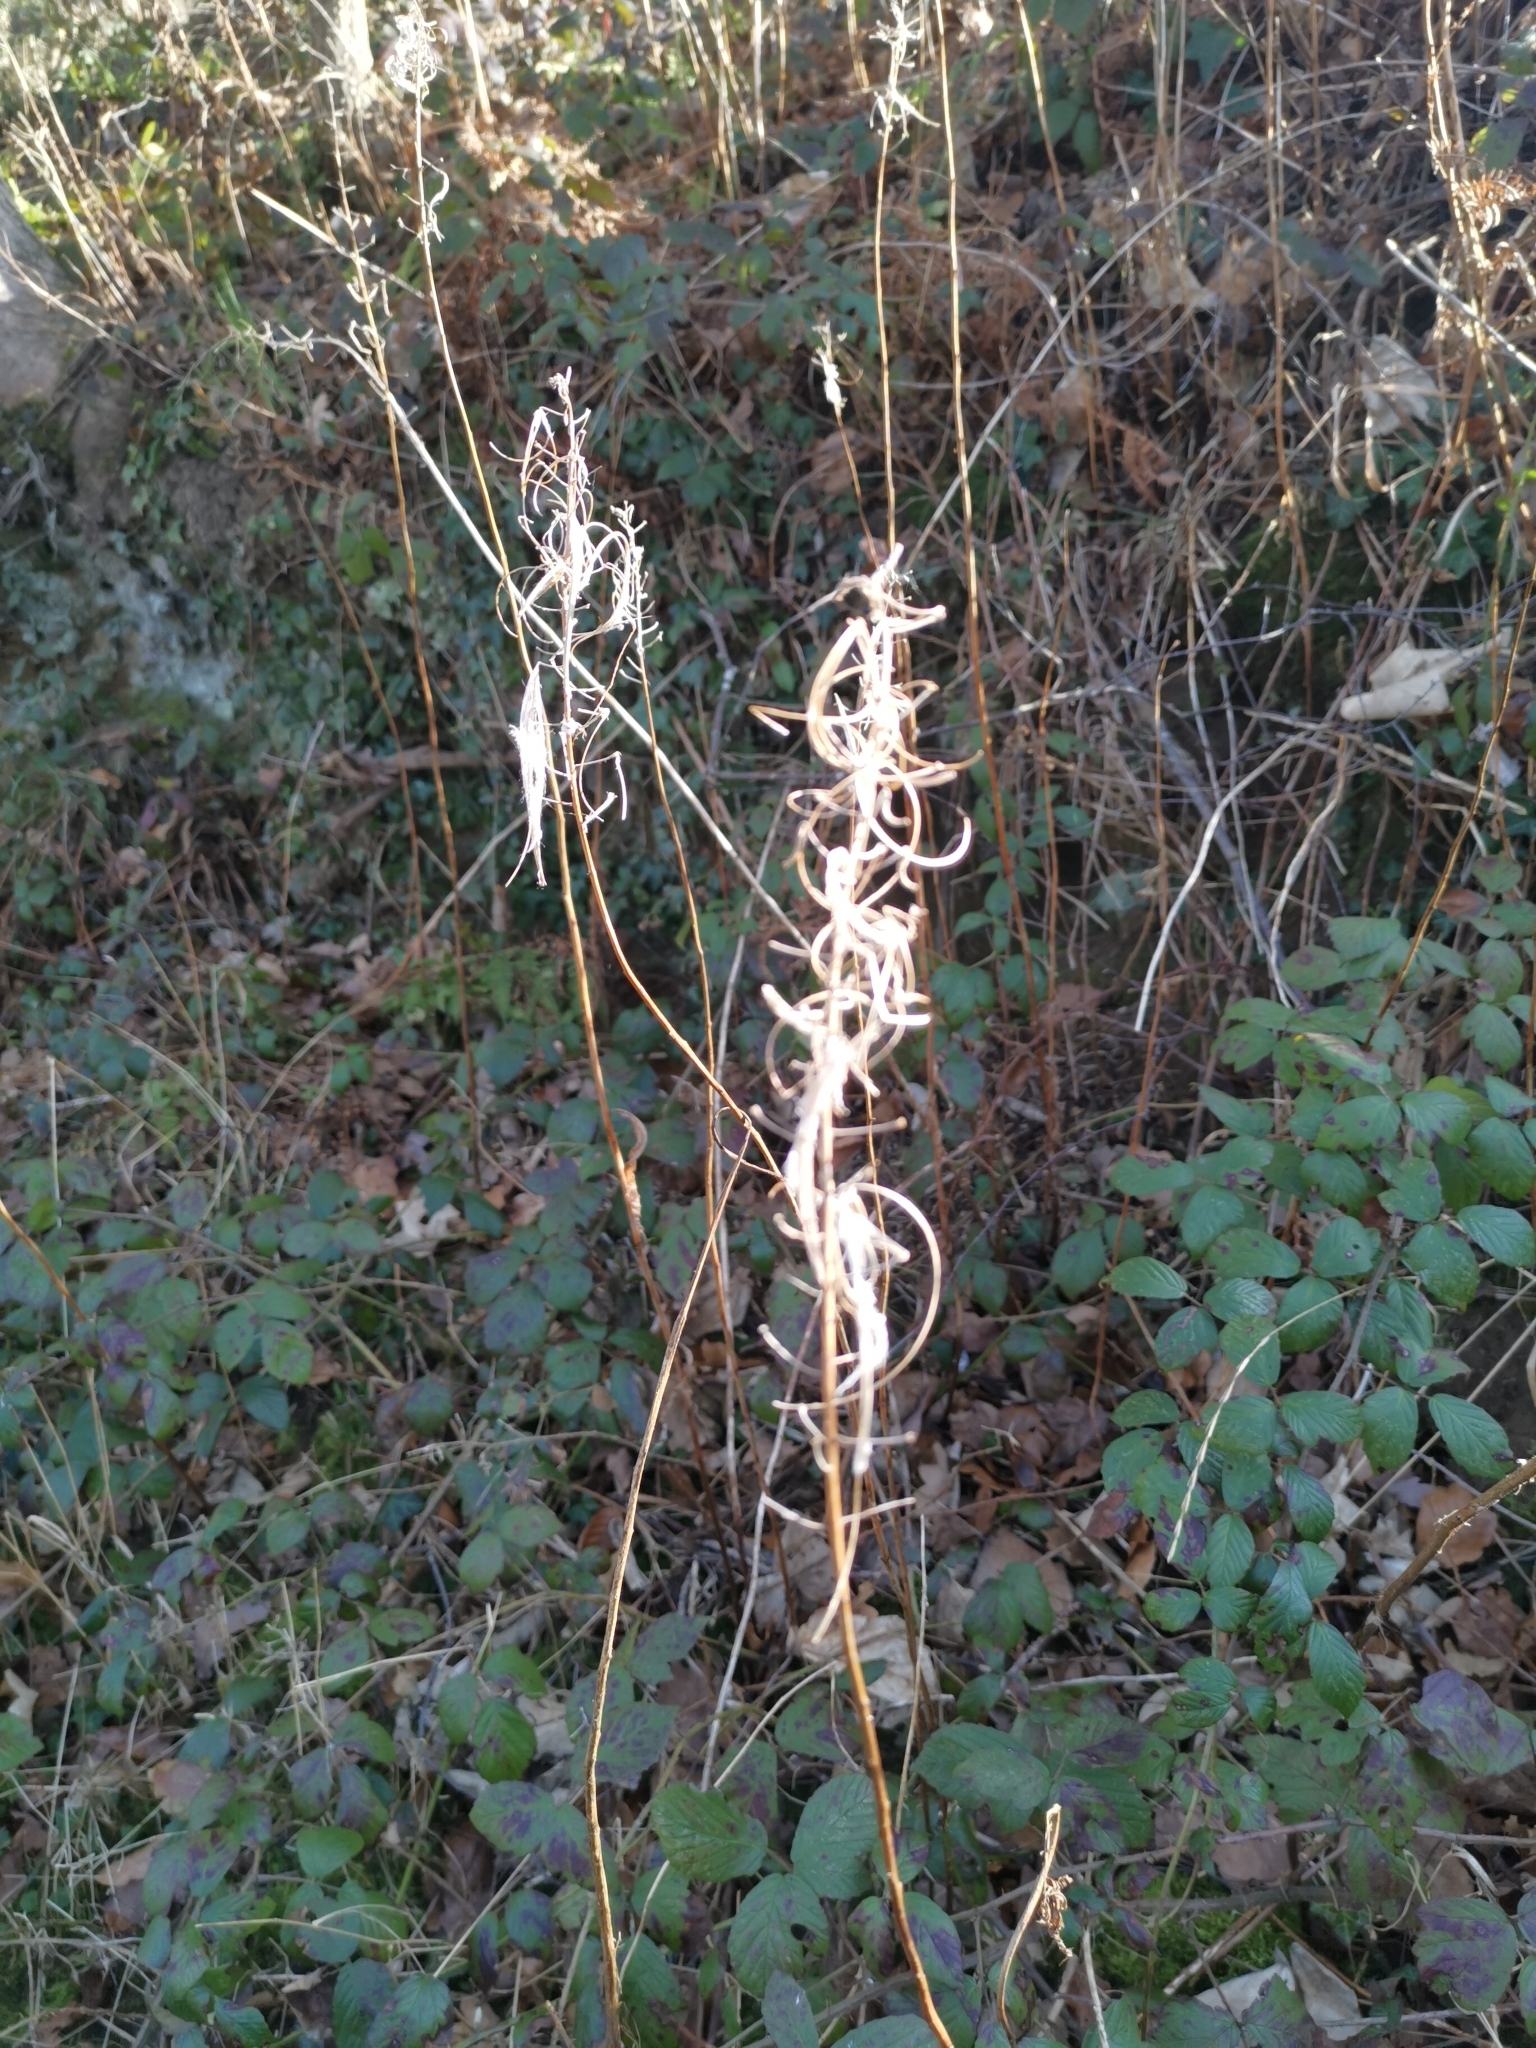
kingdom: Plantae
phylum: Tracheophyta
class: Magnoliopsida
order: Myrtales
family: Onagraceae
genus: Chamaenerion
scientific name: Chamaenerion angustifolium
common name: Fireweed
